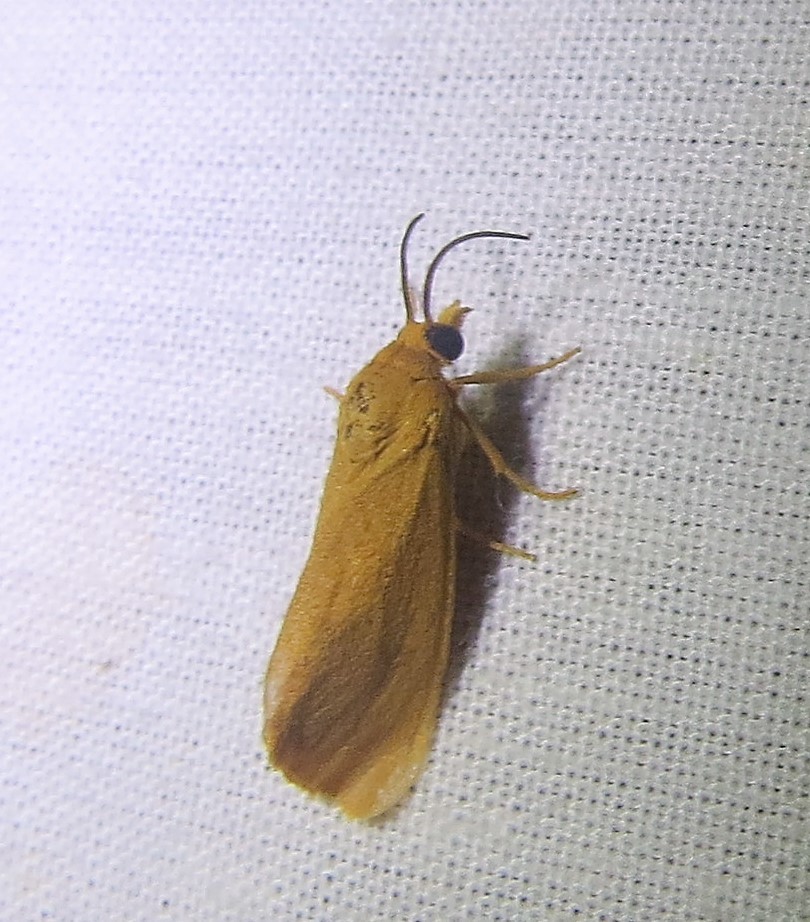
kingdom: Animalia
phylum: Arthropoda
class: Insecta
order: Lepidoptera
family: Erebidae
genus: Virbia
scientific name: Virbia aurantiaca
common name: Orange virbia moth
